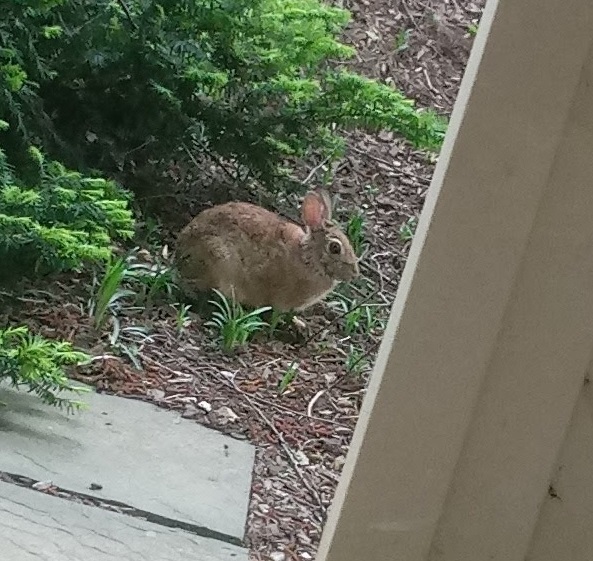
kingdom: Animalia
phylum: Chordata
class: Mammalia
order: Lagomorpha
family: Leporidae
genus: Sylvilagus
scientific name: Sylvilagus floridanus
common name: Eastern cottontail
